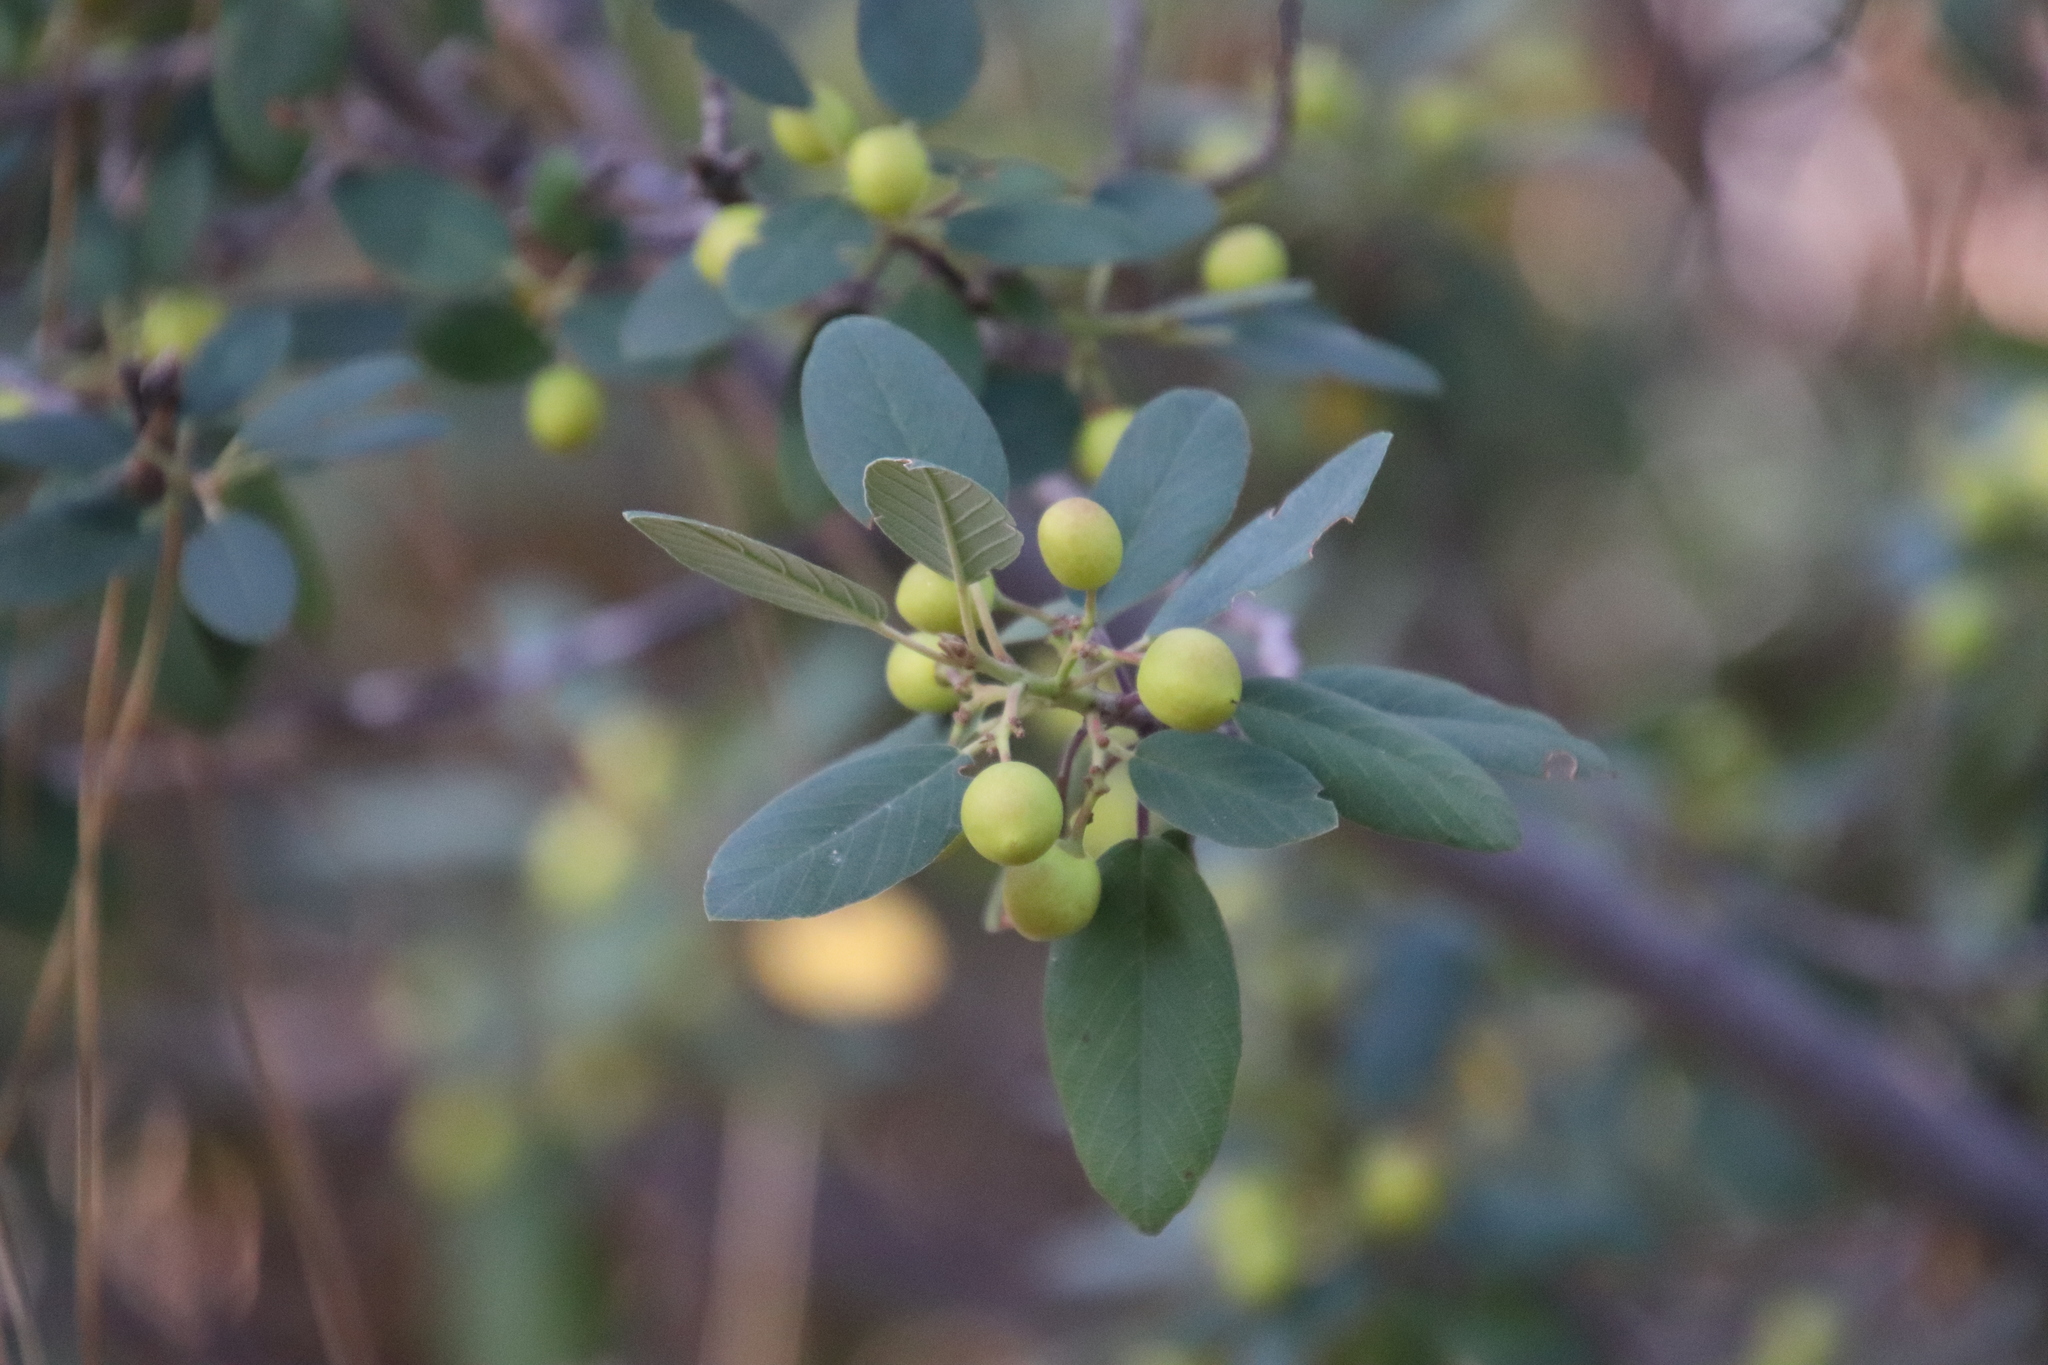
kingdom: Plantae
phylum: Tracheophyta
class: Magnoliopsida
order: Rosales
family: Rhamnaceae
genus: Frangula
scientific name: Frangula californica
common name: California buckthorn
